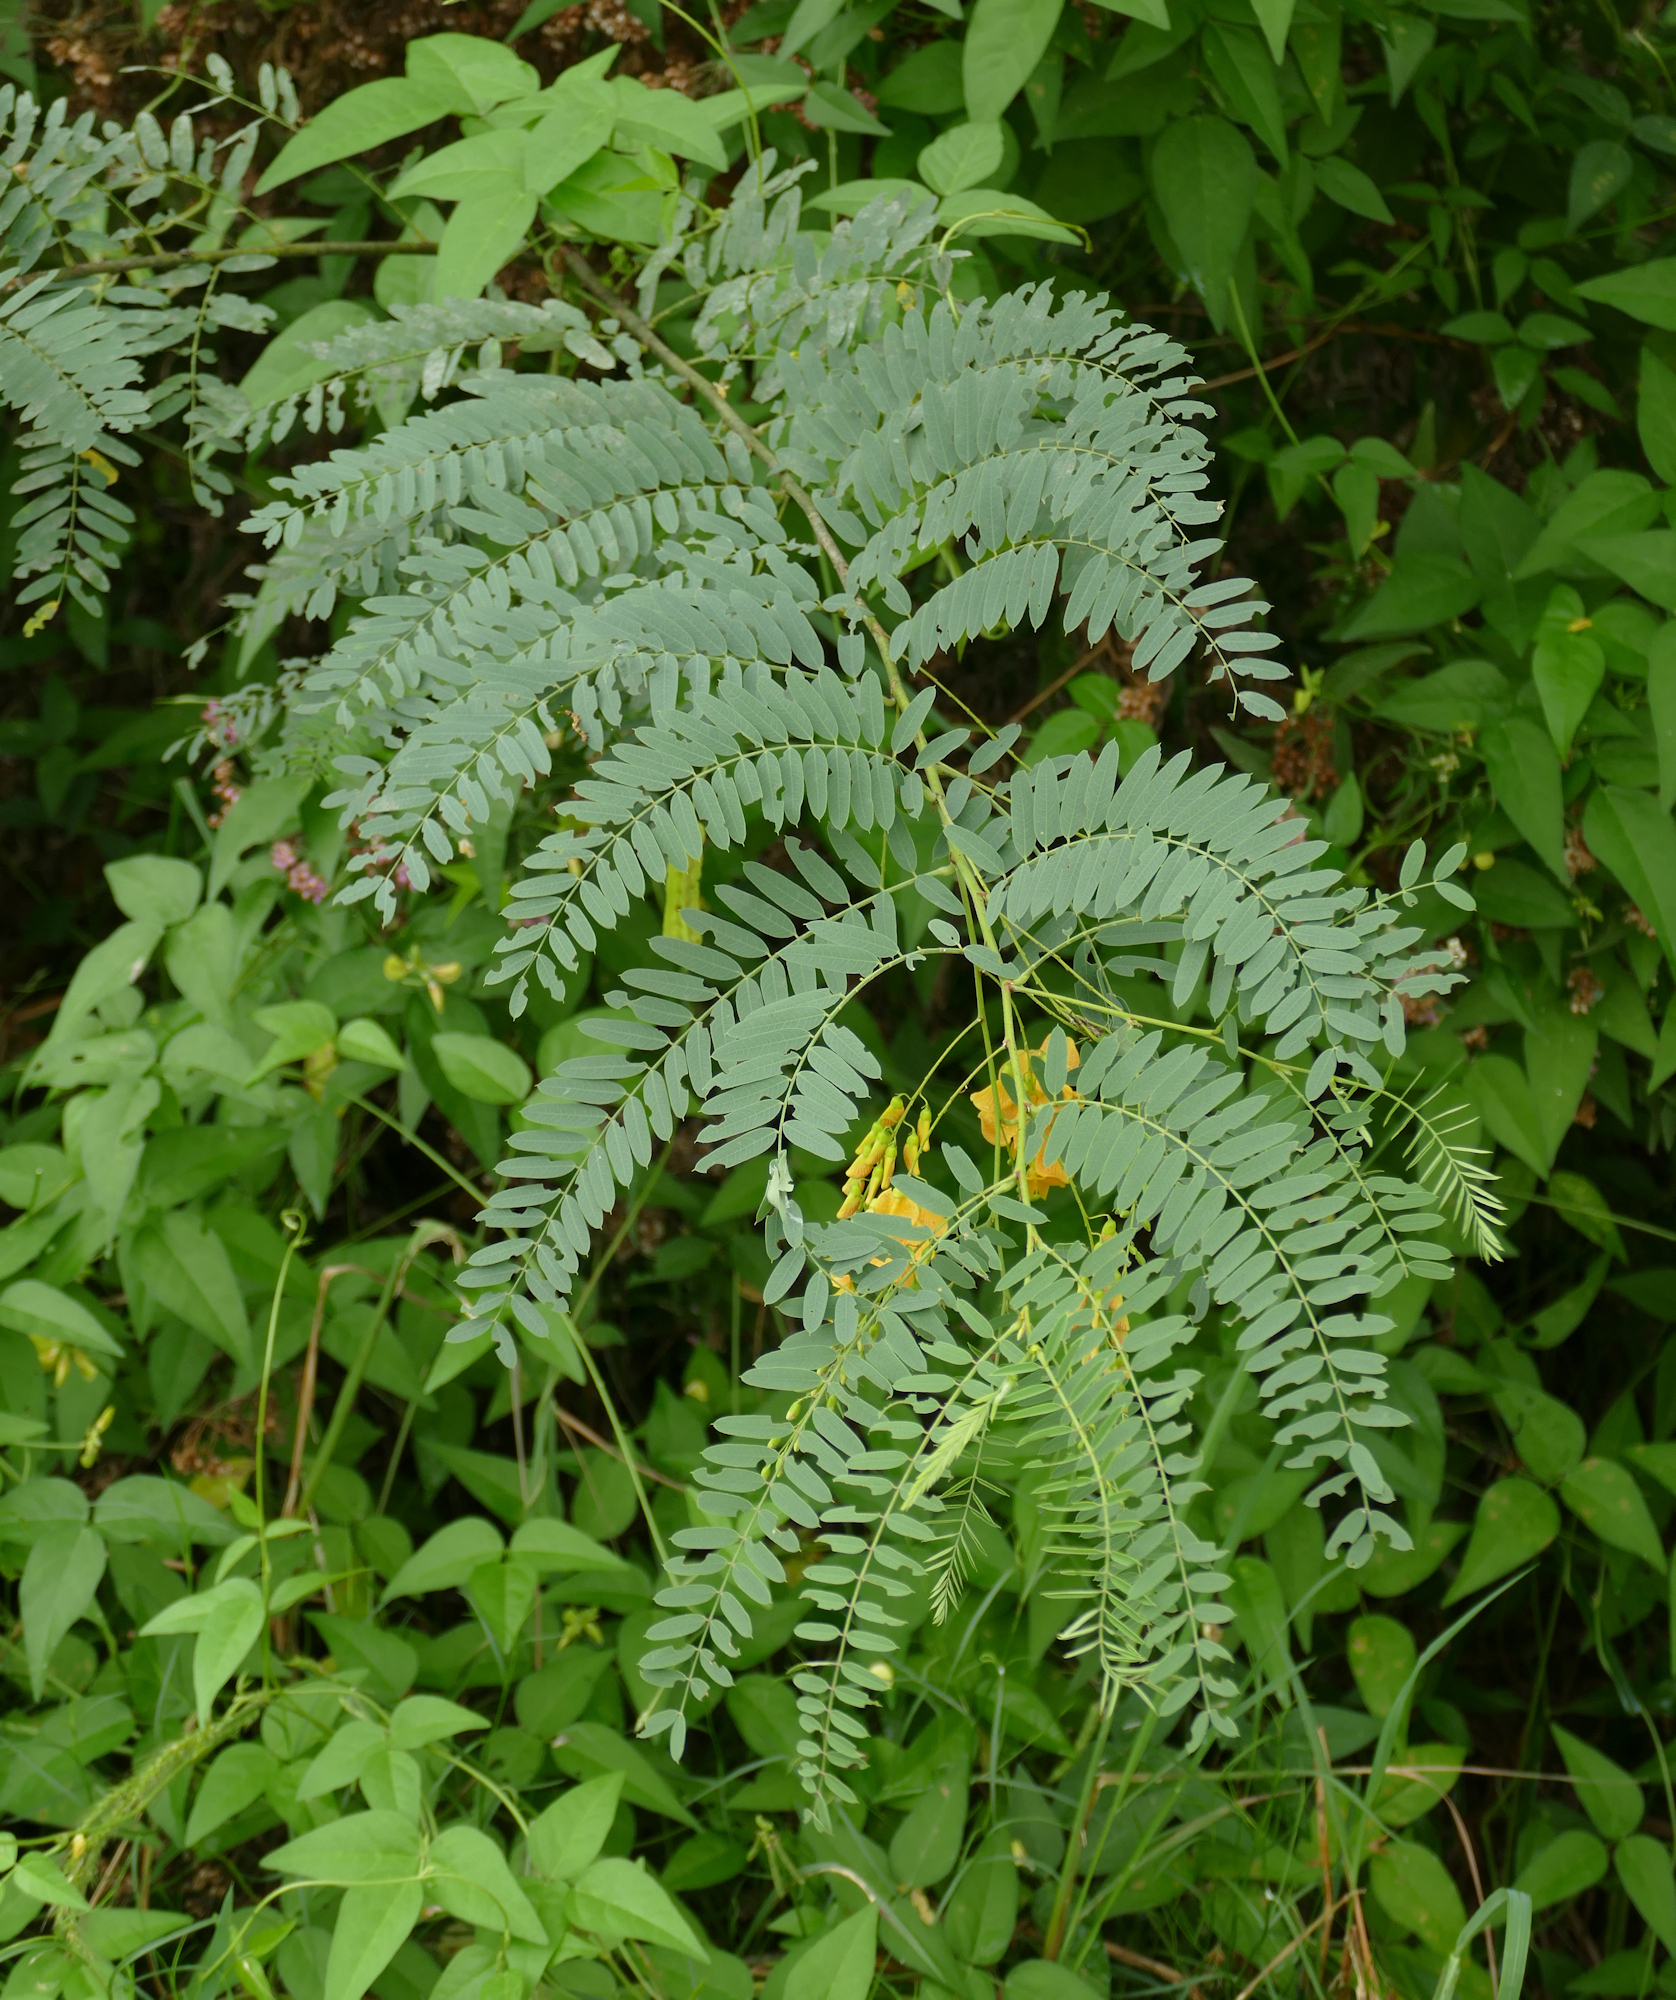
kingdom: Plantae
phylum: Tracheophyta
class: Magnoliopsida
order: Fabales
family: Fabaceae
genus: Sesbania
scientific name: Sesbania drummondii
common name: Poison-bean
